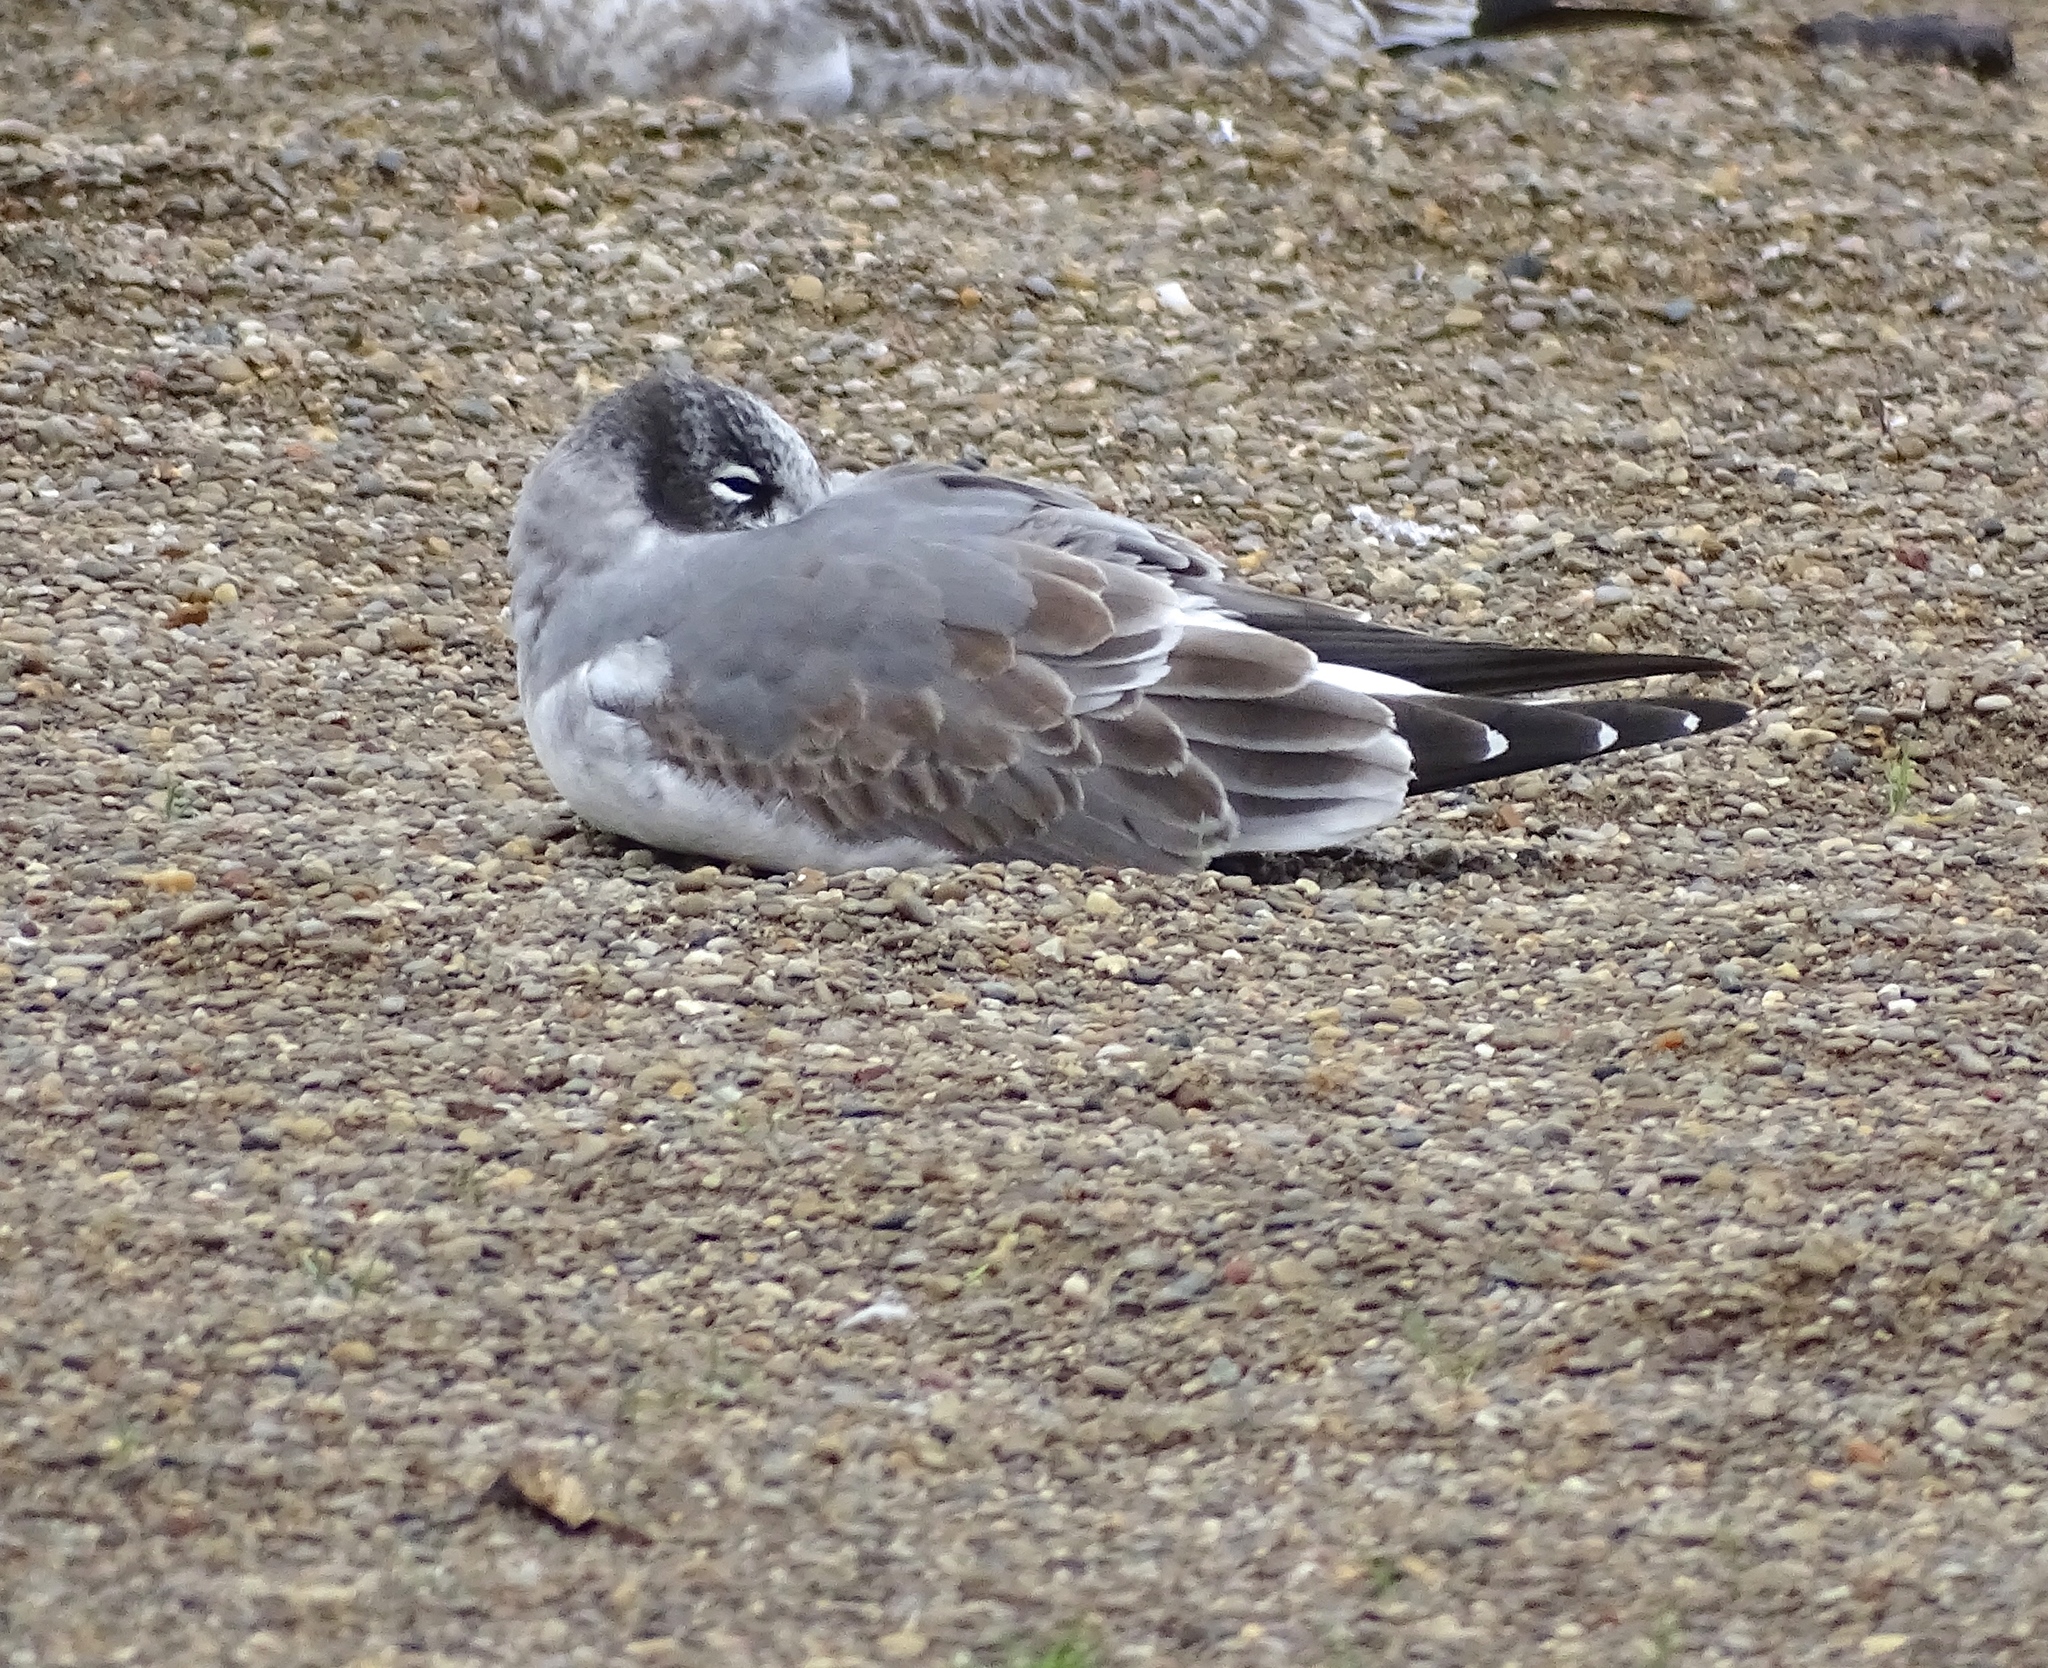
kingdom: Animalia
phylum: Chordata
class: Aves
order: Charadriiformes
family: Laridae
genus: Leucophaeus
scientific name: Leucophaeus pipixcan
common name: Franklin's gull
